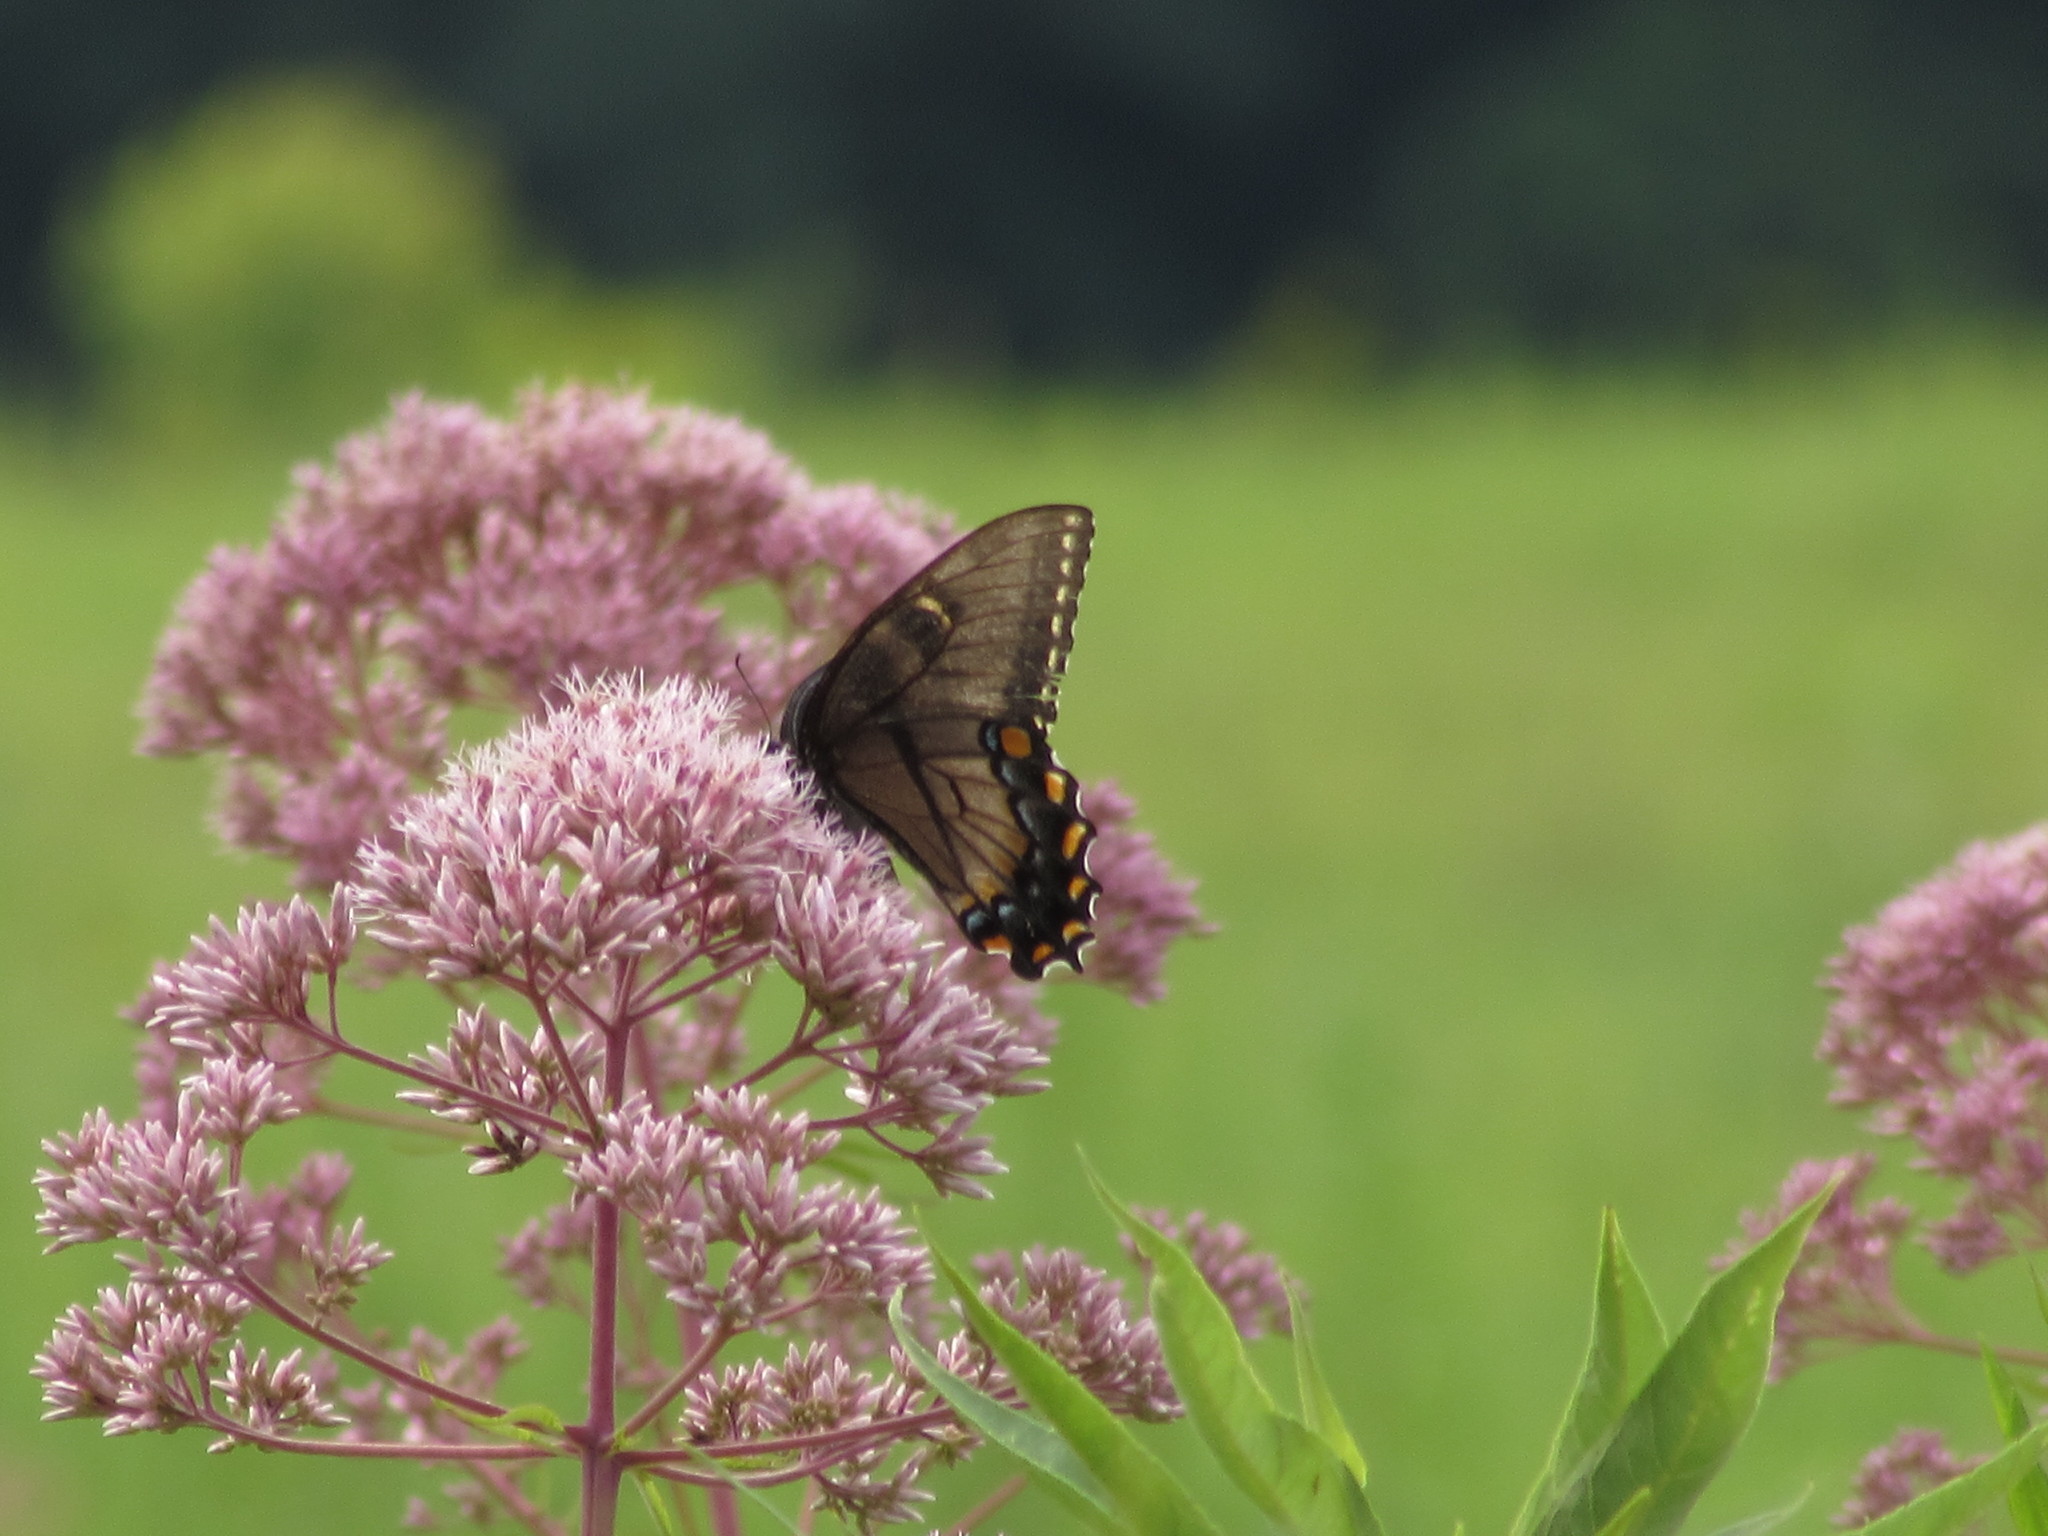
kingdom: Animalia
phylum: Arthropoda
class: Insecta
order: Lepidoptera
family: Papilionidae
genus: Papilio
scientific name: Papilio glaucus
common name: Tiger swallowtail
